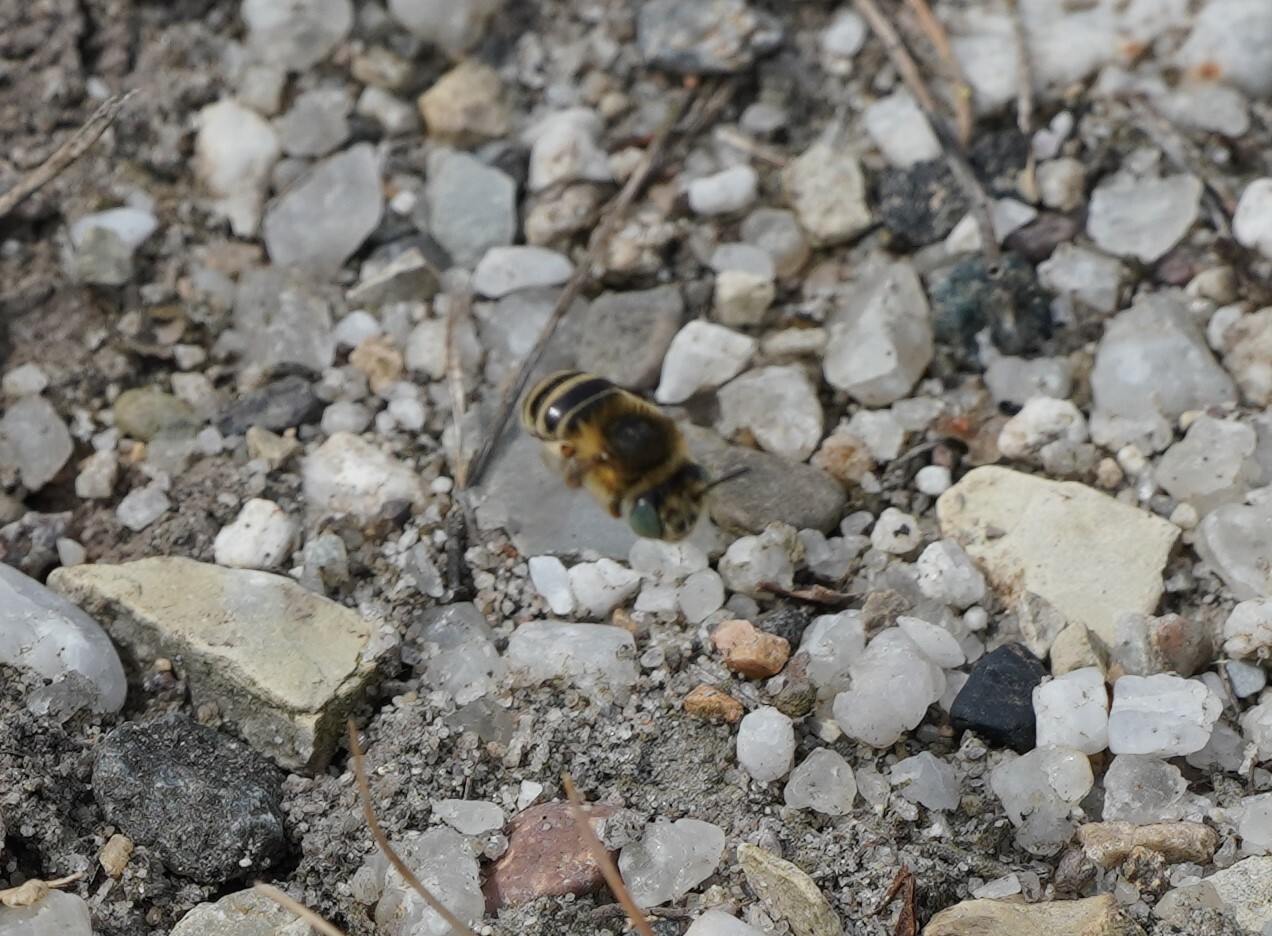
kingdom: Animalia
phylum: Arthropoda
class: Insecta
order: Hymenoptera
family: Apidae
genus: Anthophora
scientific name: Anthophora bimaculata
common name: Green-eyed flower bee
